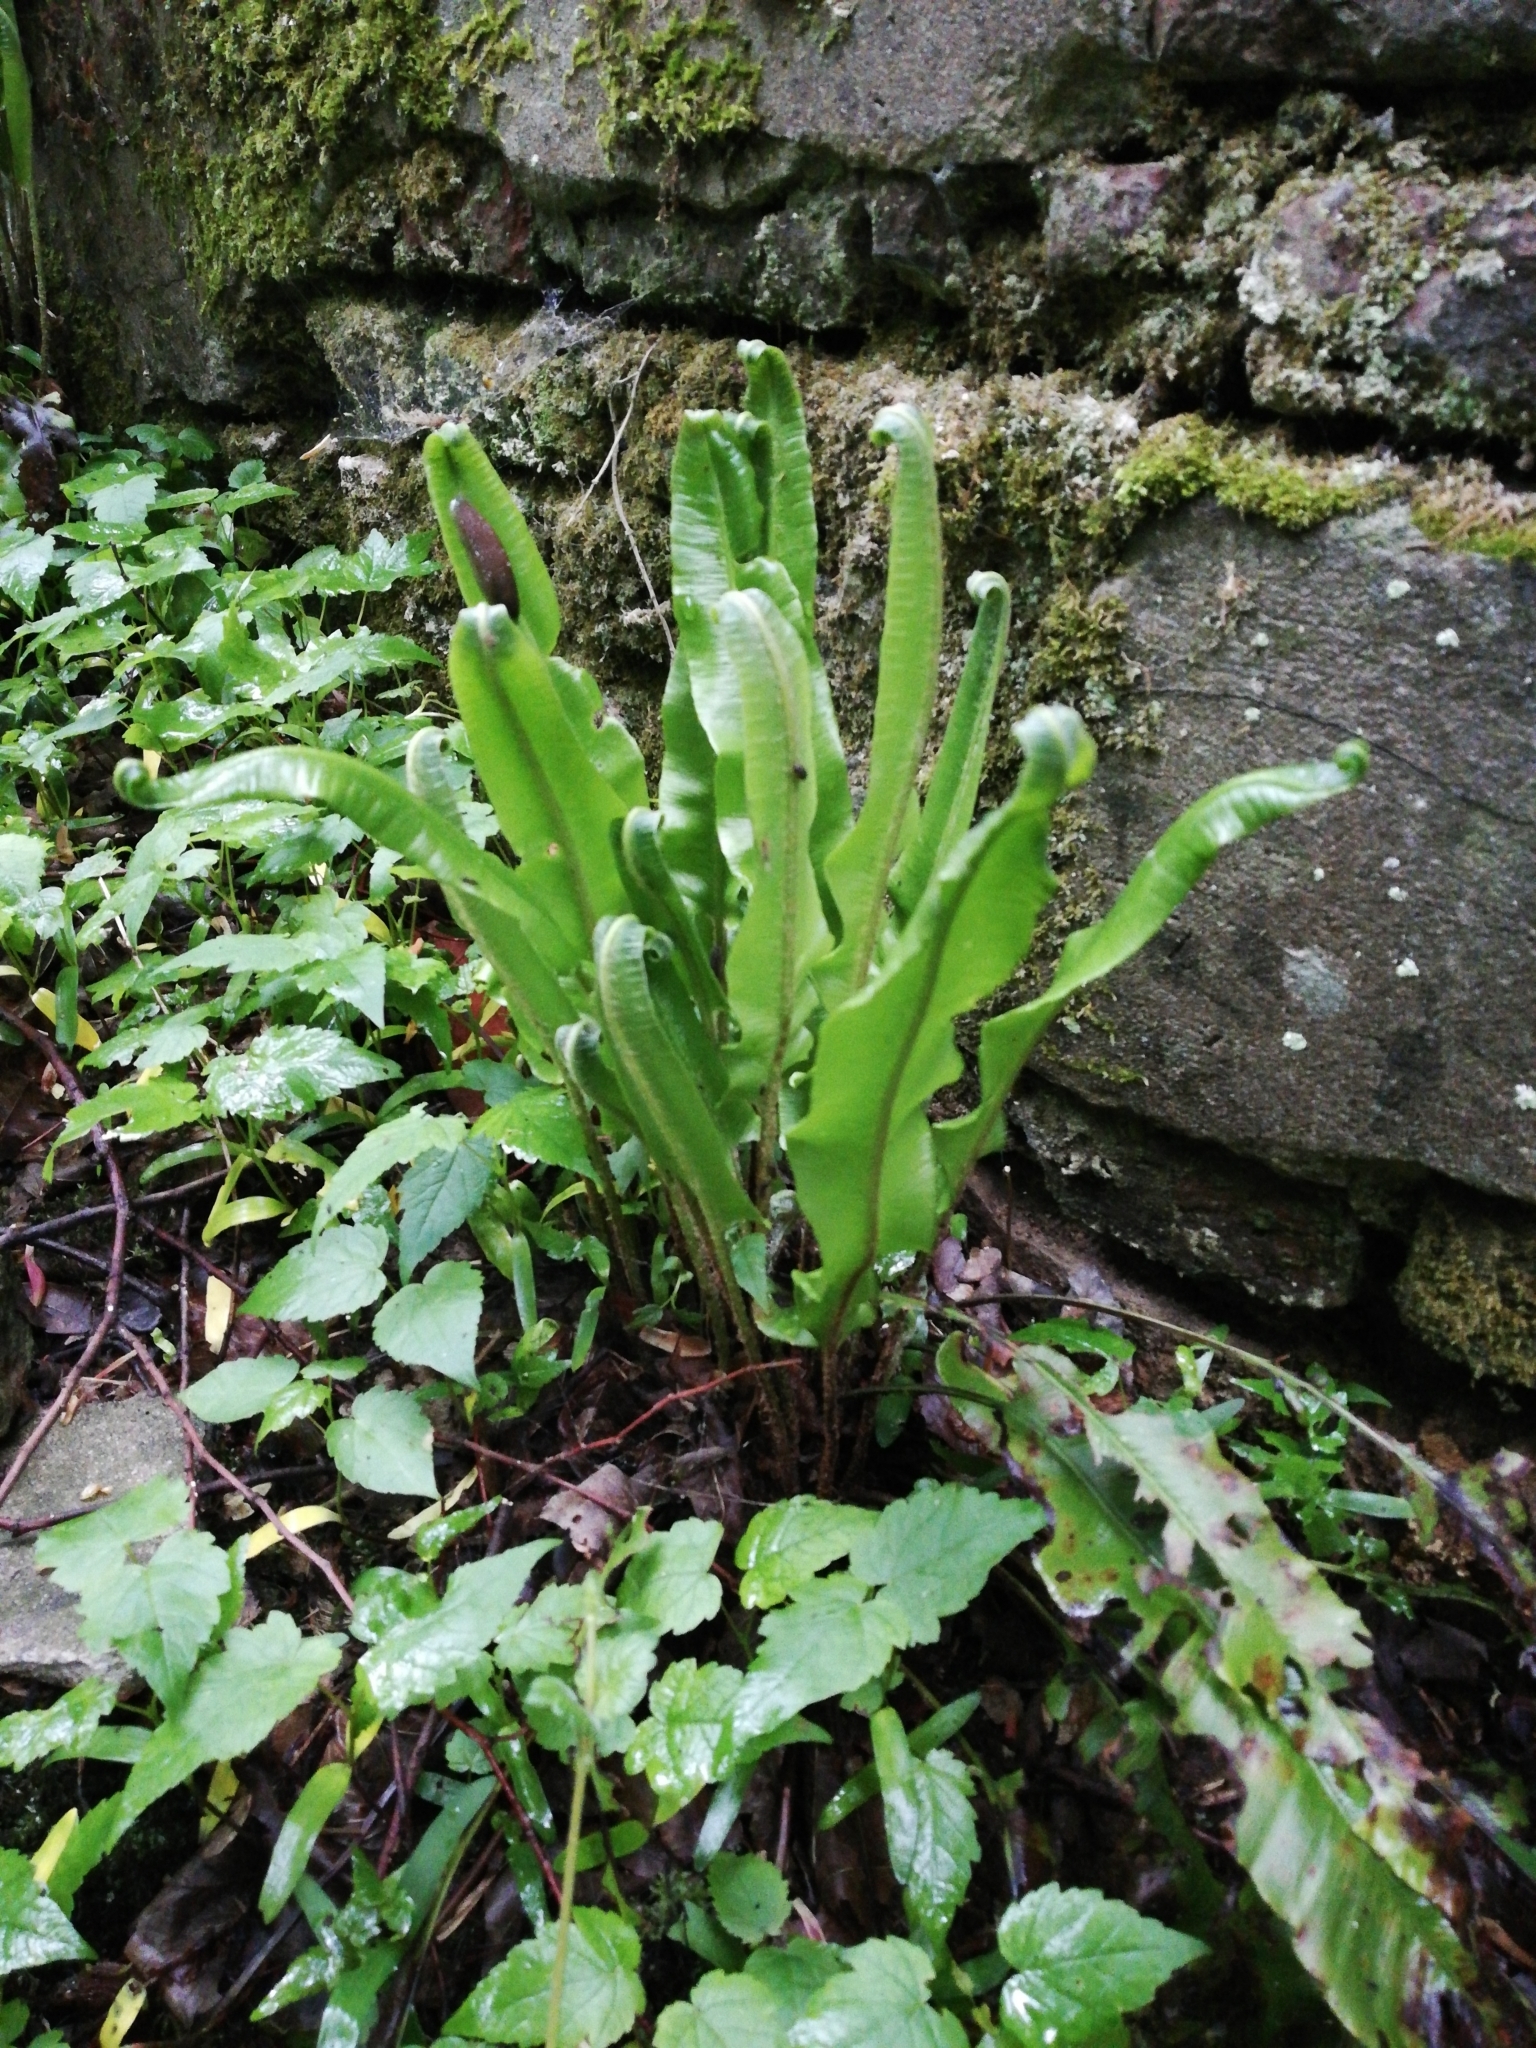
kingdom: Plantae
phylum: Tracheophyta
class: Polypodiopsida
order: Polypodiales
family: Aspleniaceae
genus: Asplenium
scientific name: Asplenium scolopendrium
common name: Hart's-tongue fern
